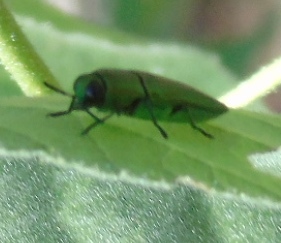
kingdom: Animalia
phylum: Arthropoda
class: Insecta
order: Coleoptera
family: Buprestidae
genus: Agaeocera
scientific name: Agaeocera scintillans
